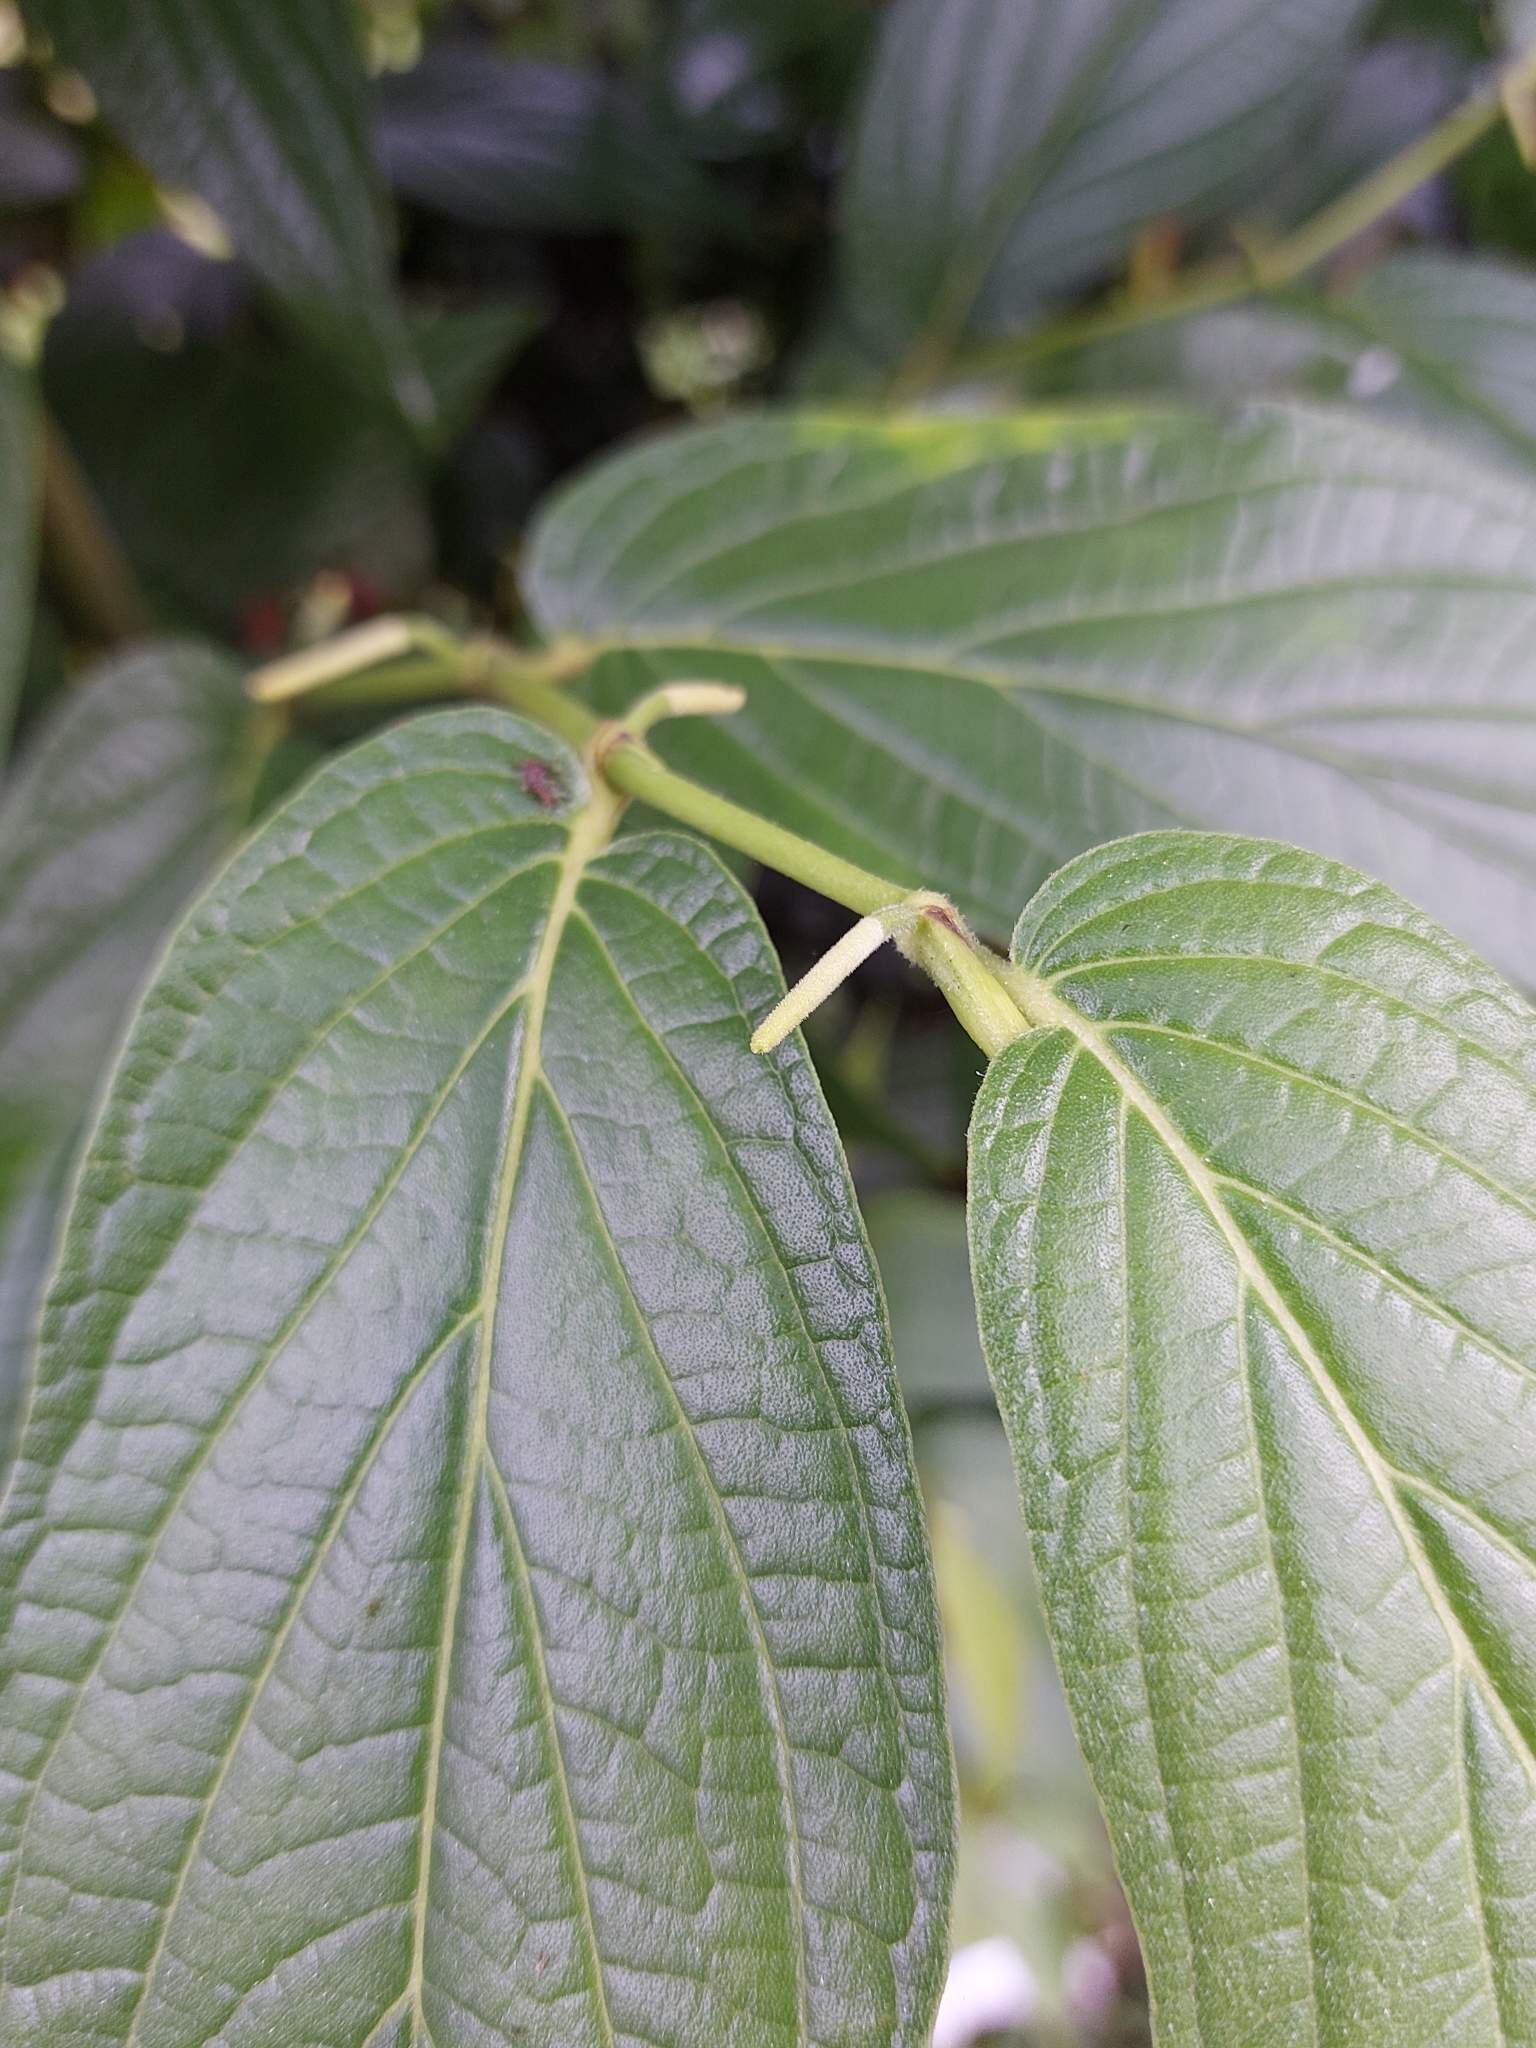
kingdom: Plantae
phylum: Tracheophyta
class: Magnoliopsida
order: Piperales
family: Piperaceae
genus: Piper
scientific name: Piper aduncum
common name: Spiked pepper
